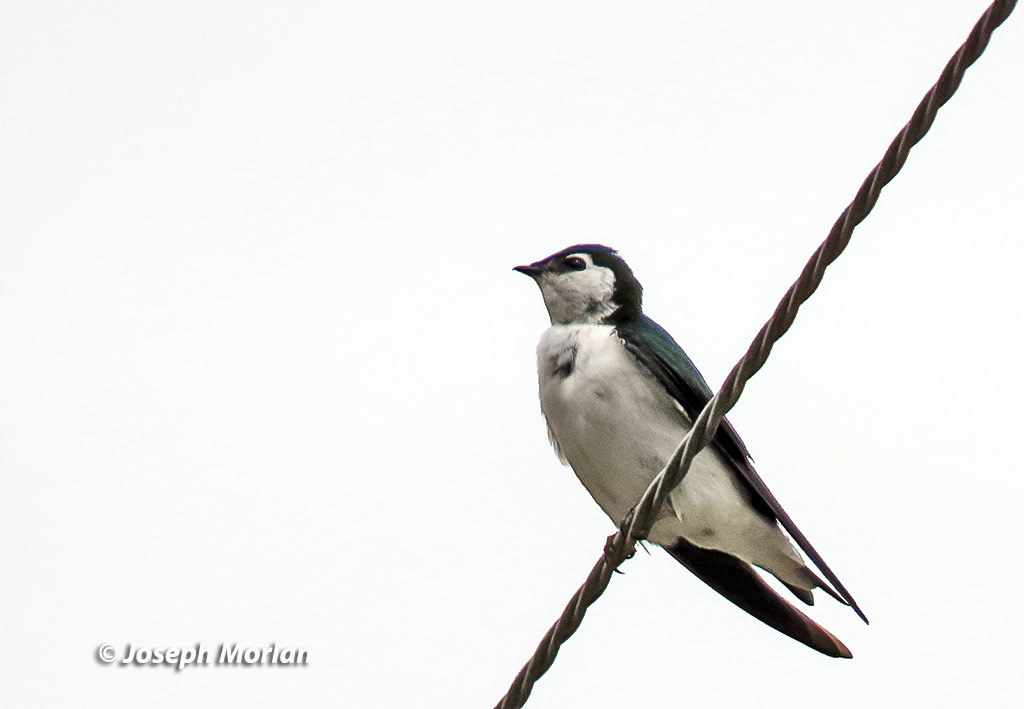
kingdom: Animalia
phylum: Chordata
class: Aves
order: Passeriformes
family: Hirundinidae
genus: Tachycineta
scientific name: Tachycineta thalassina
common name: Violet-green swallow
